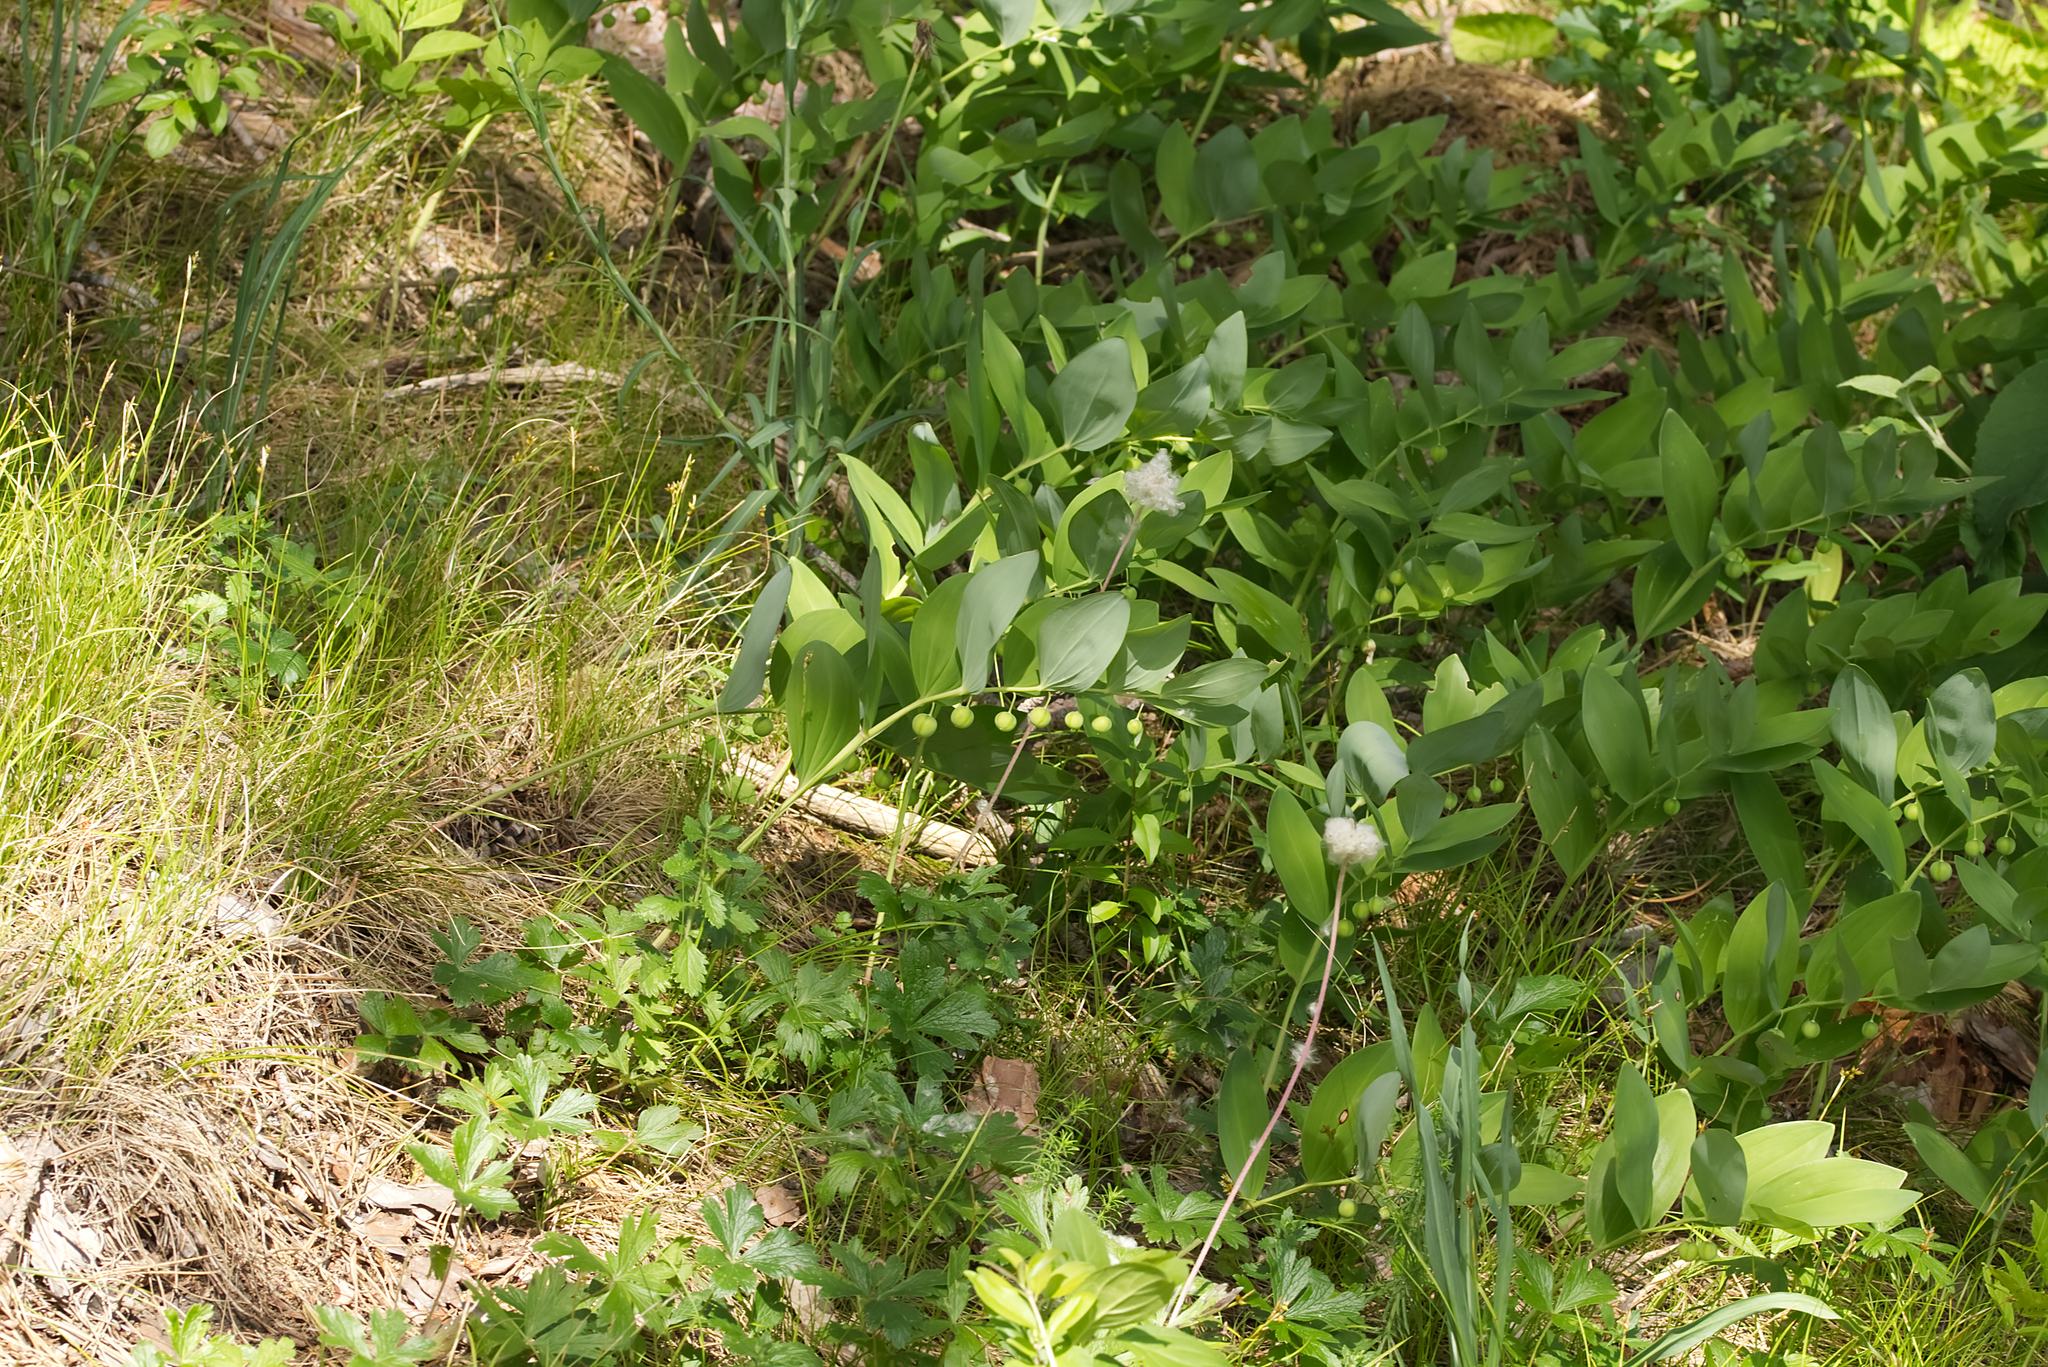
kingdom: Plantae
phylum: Tracheophyta
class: Liliopsida
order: Asparagales
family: Asparagaceae
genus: Polygonatum
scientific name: Polygonatum odoratum
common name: Angular solomon's-seal
